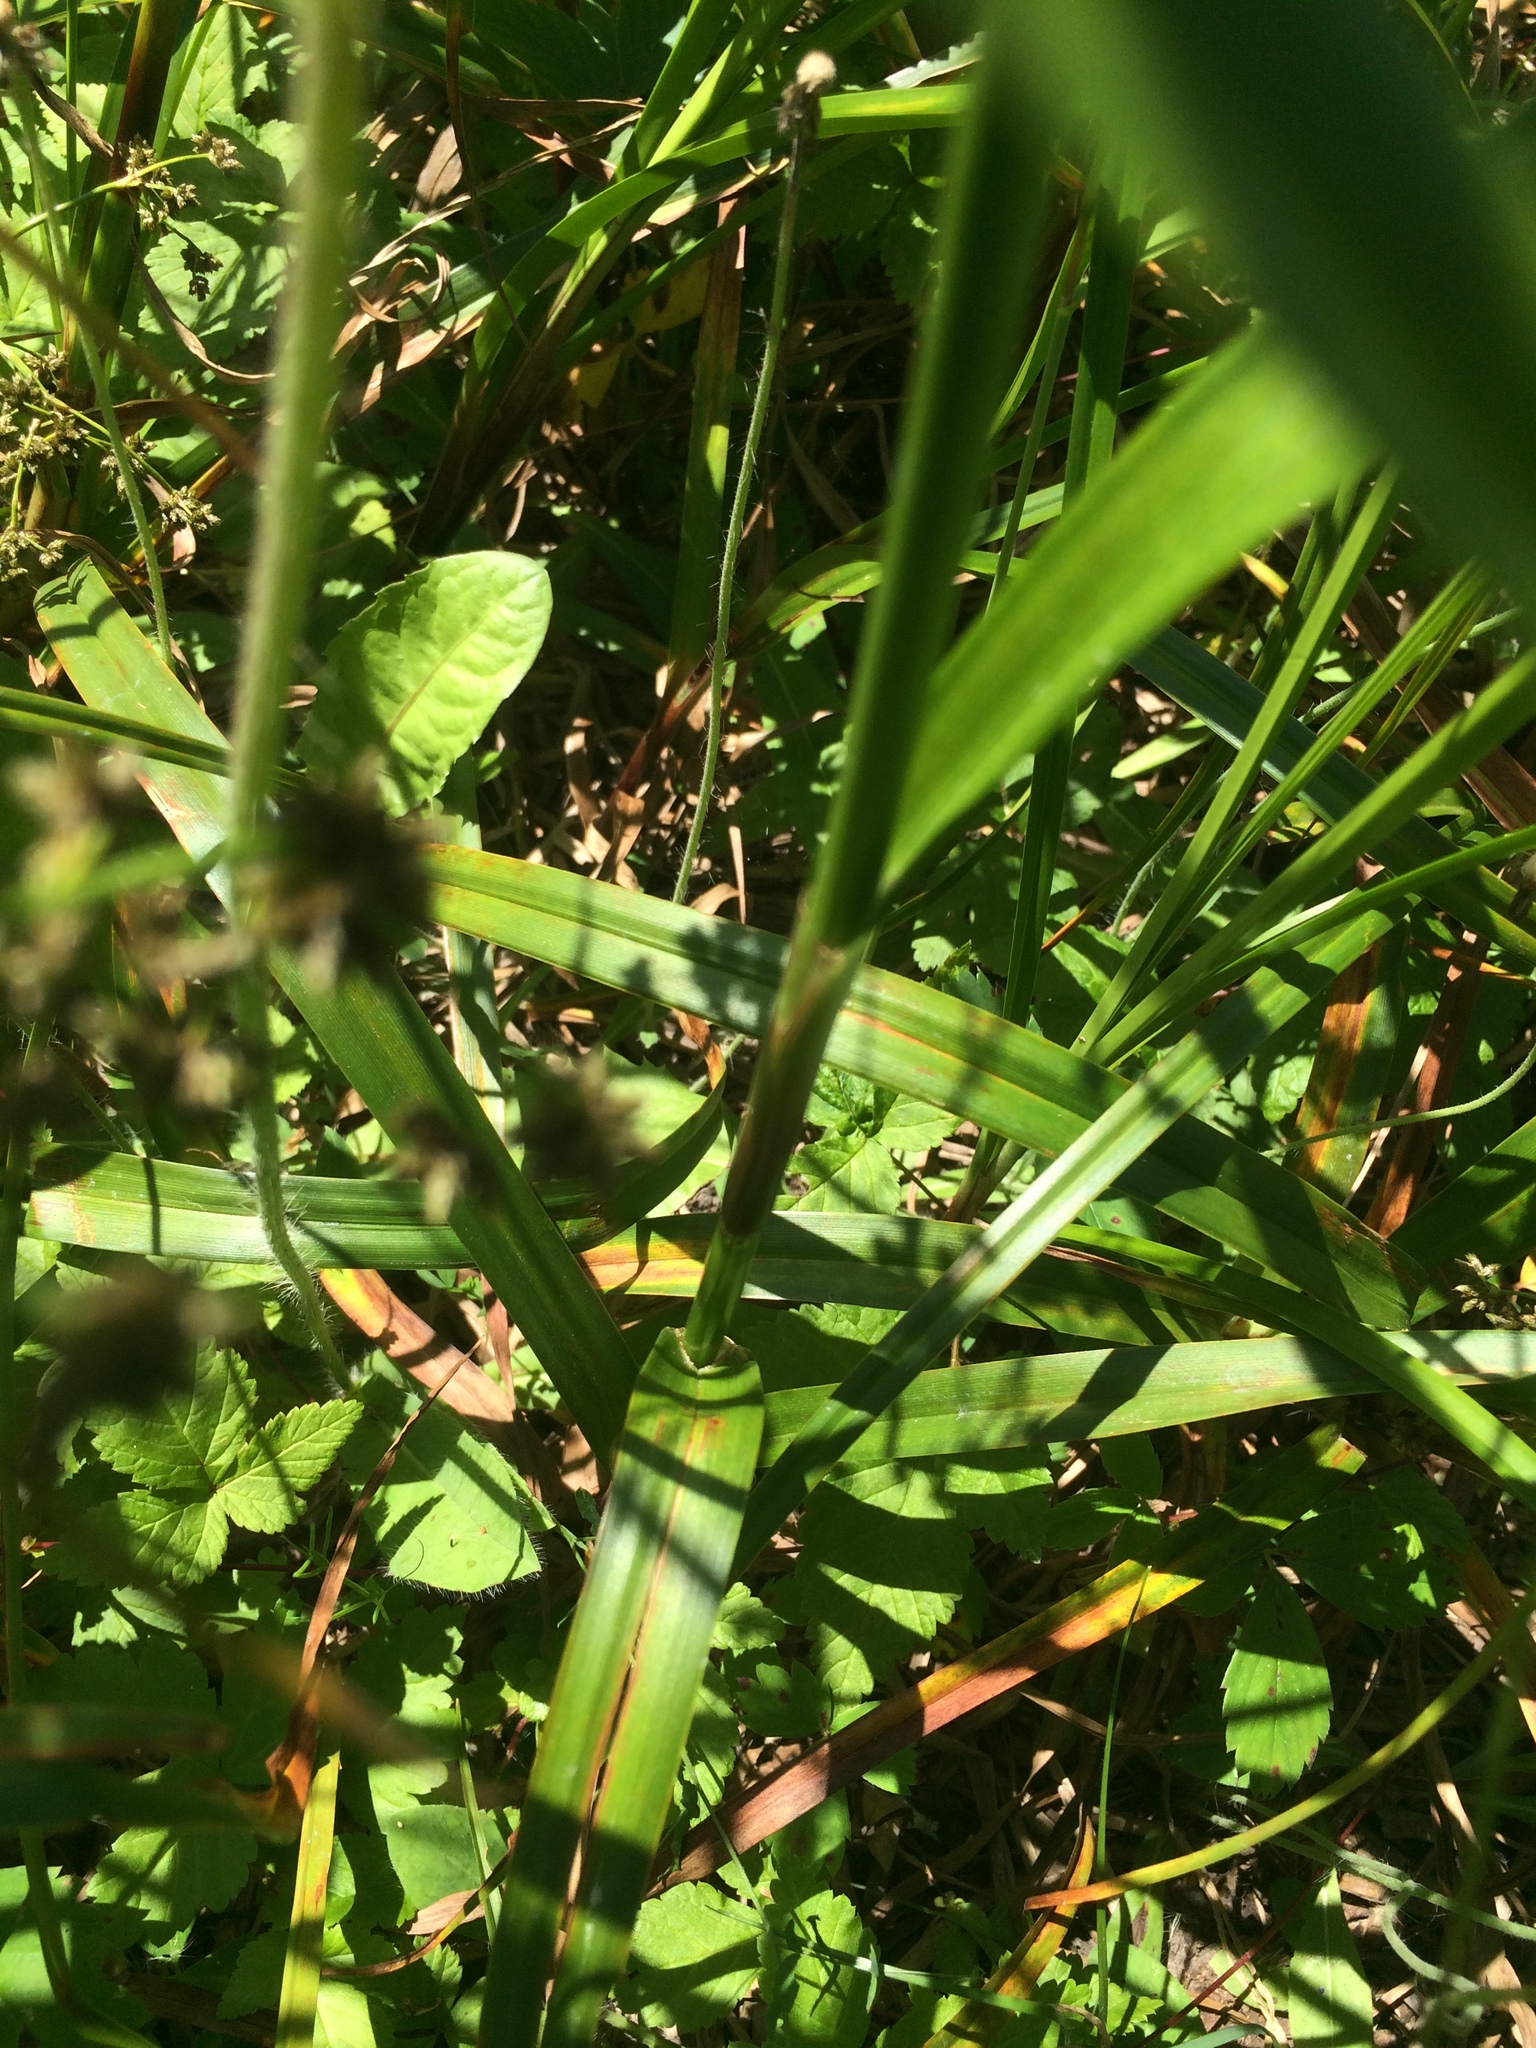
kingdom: Plantae
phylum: Tracheophyta
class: Liliopsida
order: Poales
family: Cyperaceae
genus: Scirpus
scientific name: Scirpus microcarpus
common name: Panicled bulrush
